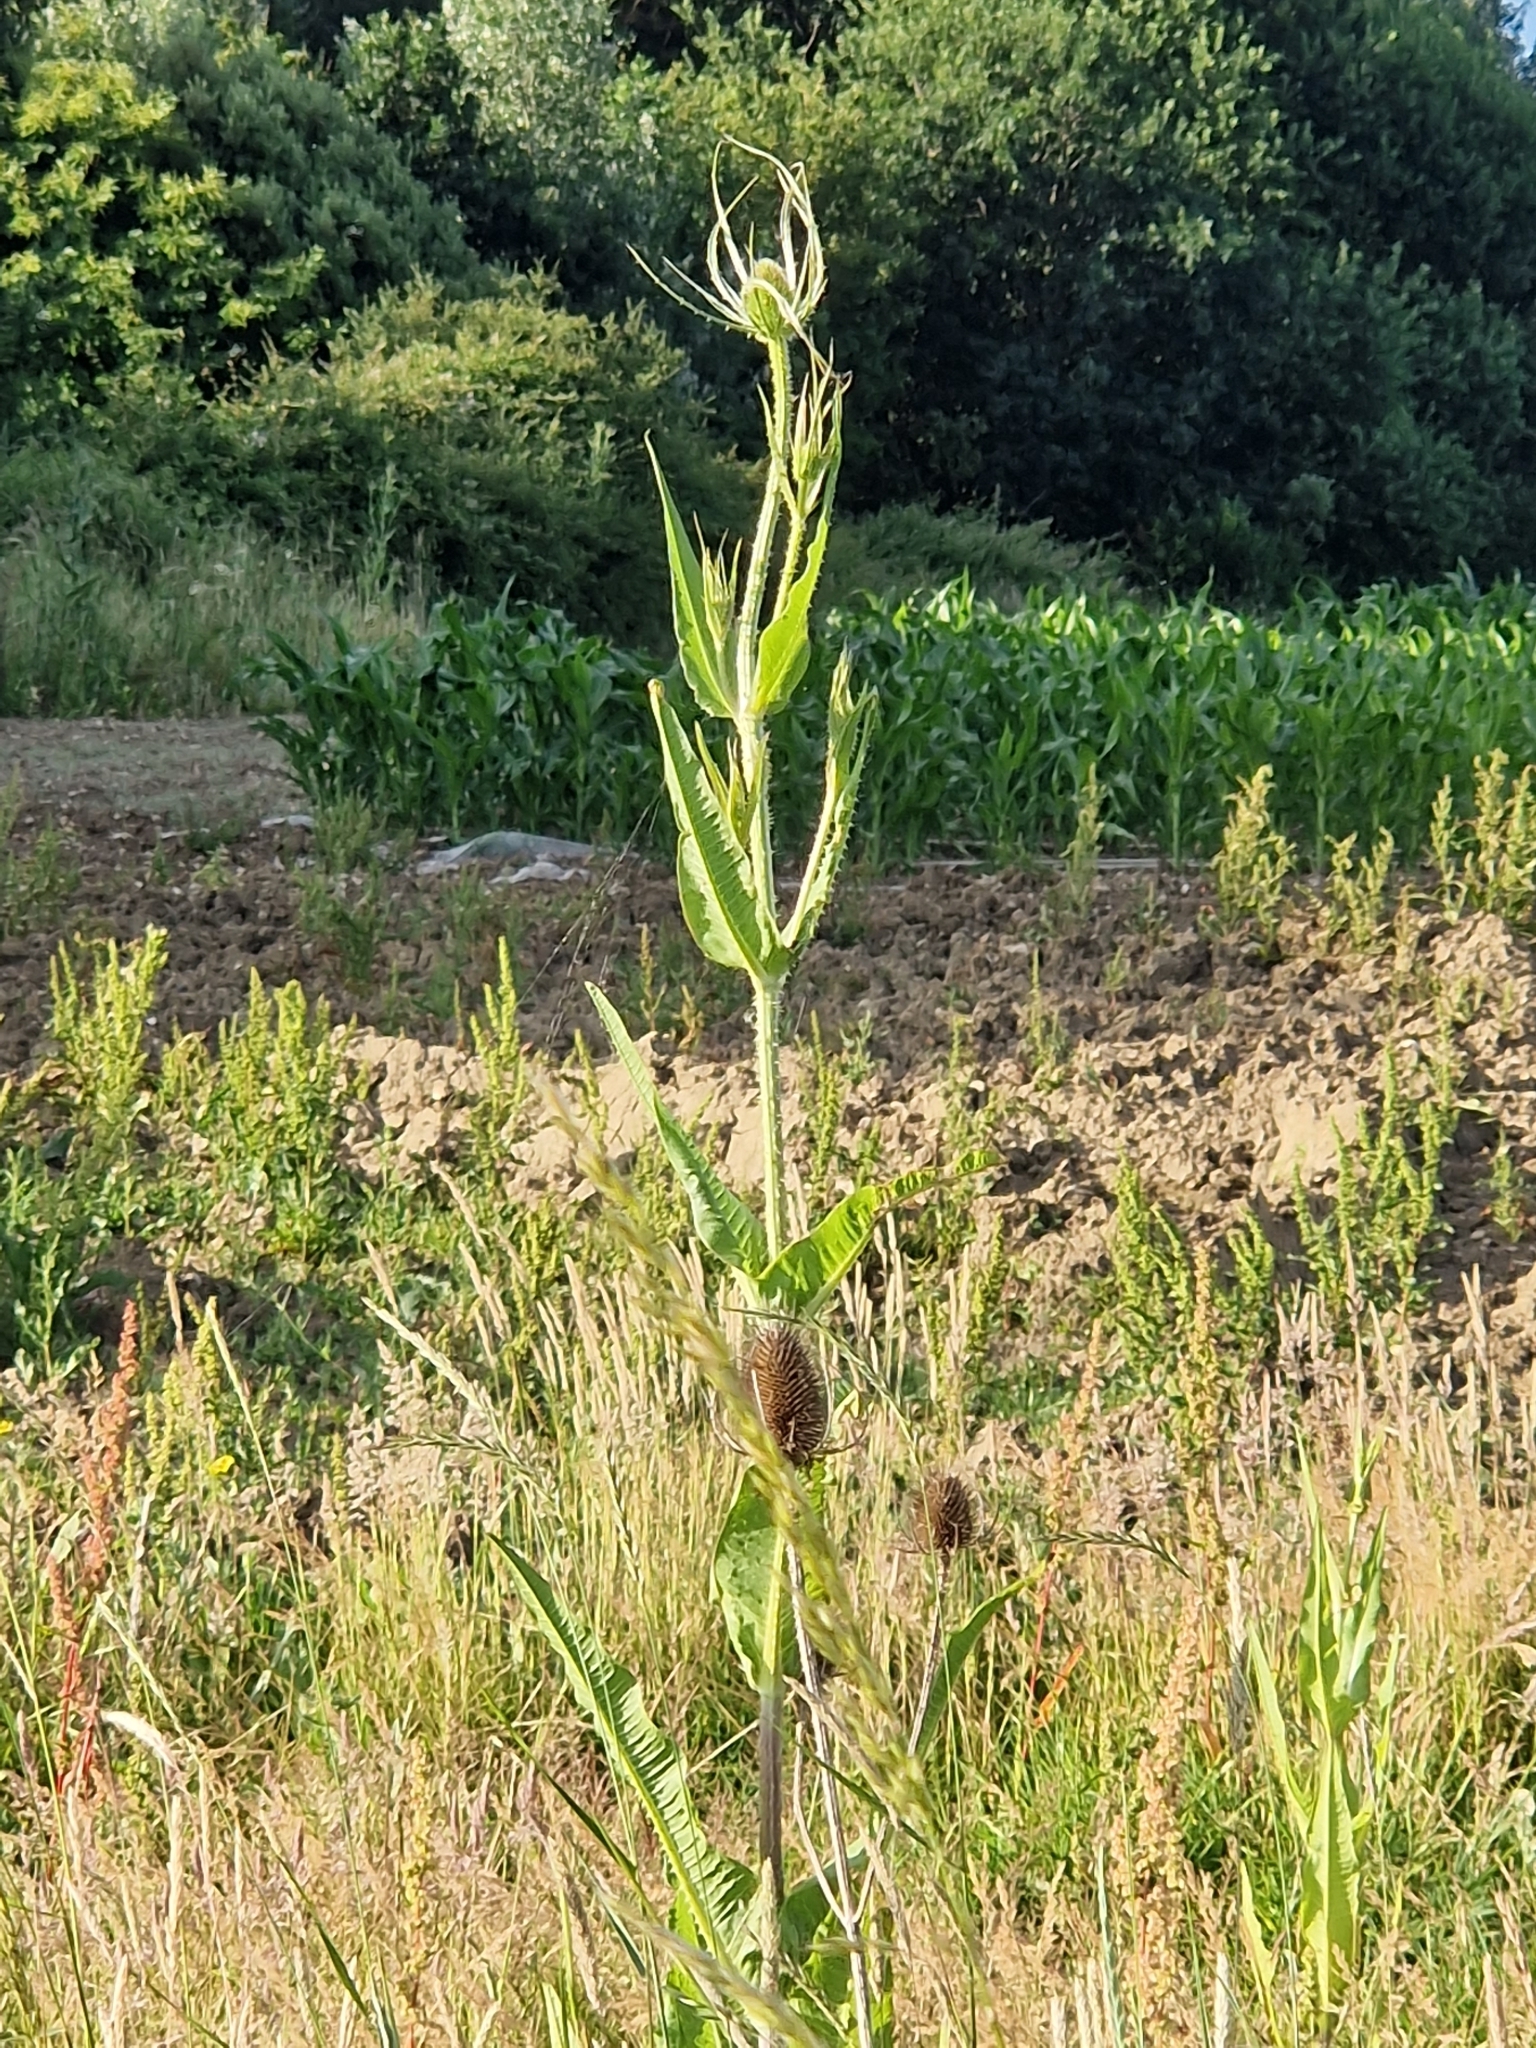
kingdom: Plantae
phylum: Tracheophyta
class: Magnoliopsida
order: Dipsacales
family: Caprifoliaceae
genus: Dipsacus
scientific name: Dipsacus fullonum
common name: Teasel
